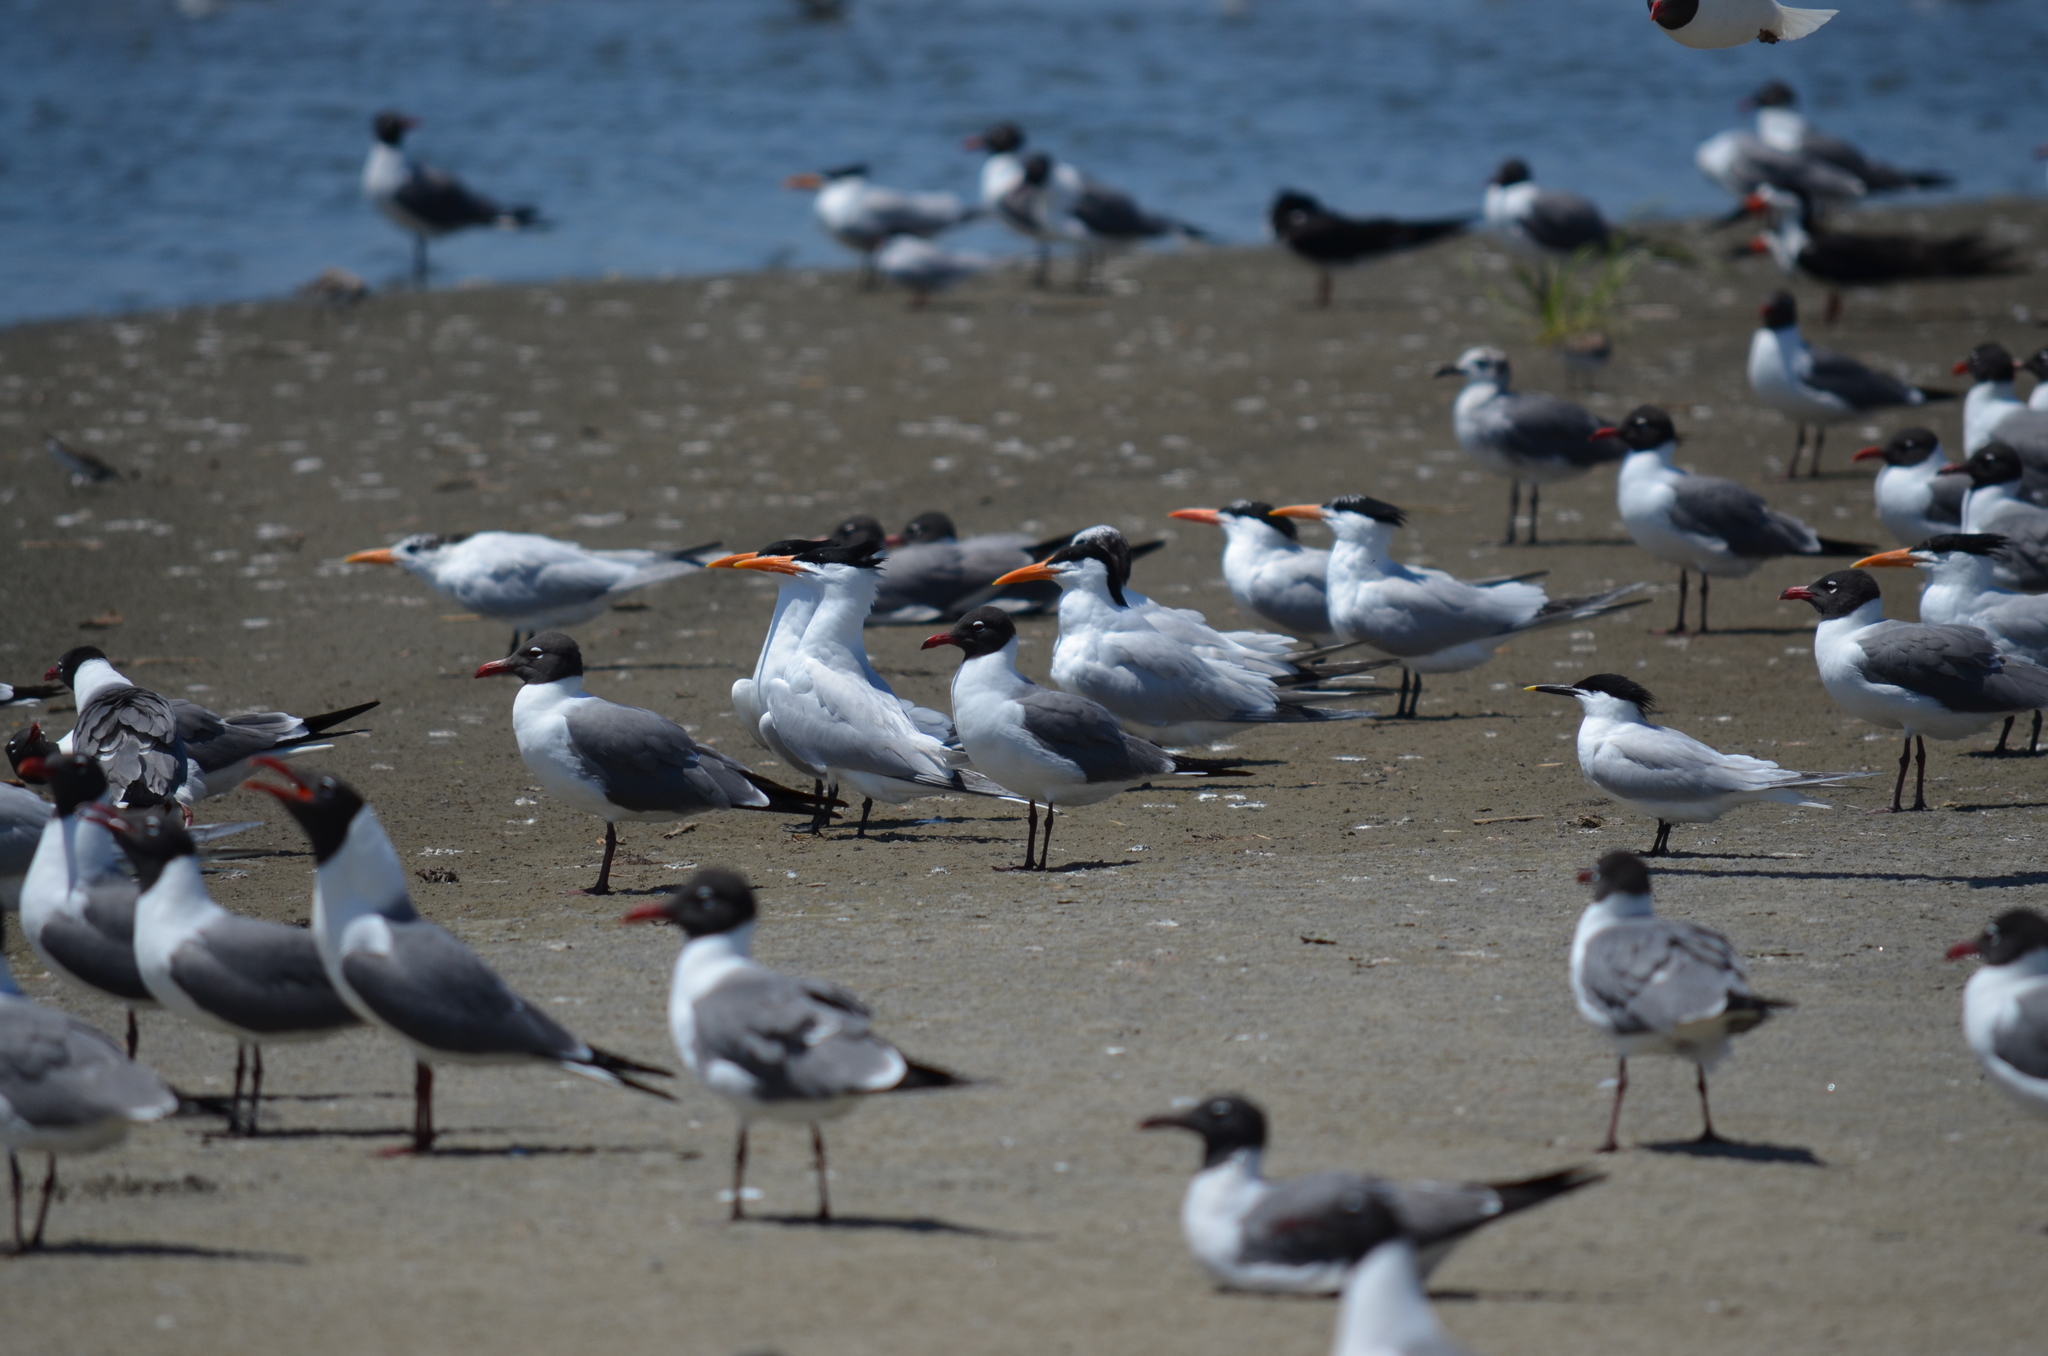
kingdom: Animalia
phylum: Chordata
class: Aves
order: Charadriiformes
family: Laridae
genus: Thalasseus
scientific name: Thalasseus maximus
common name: Royal tern
